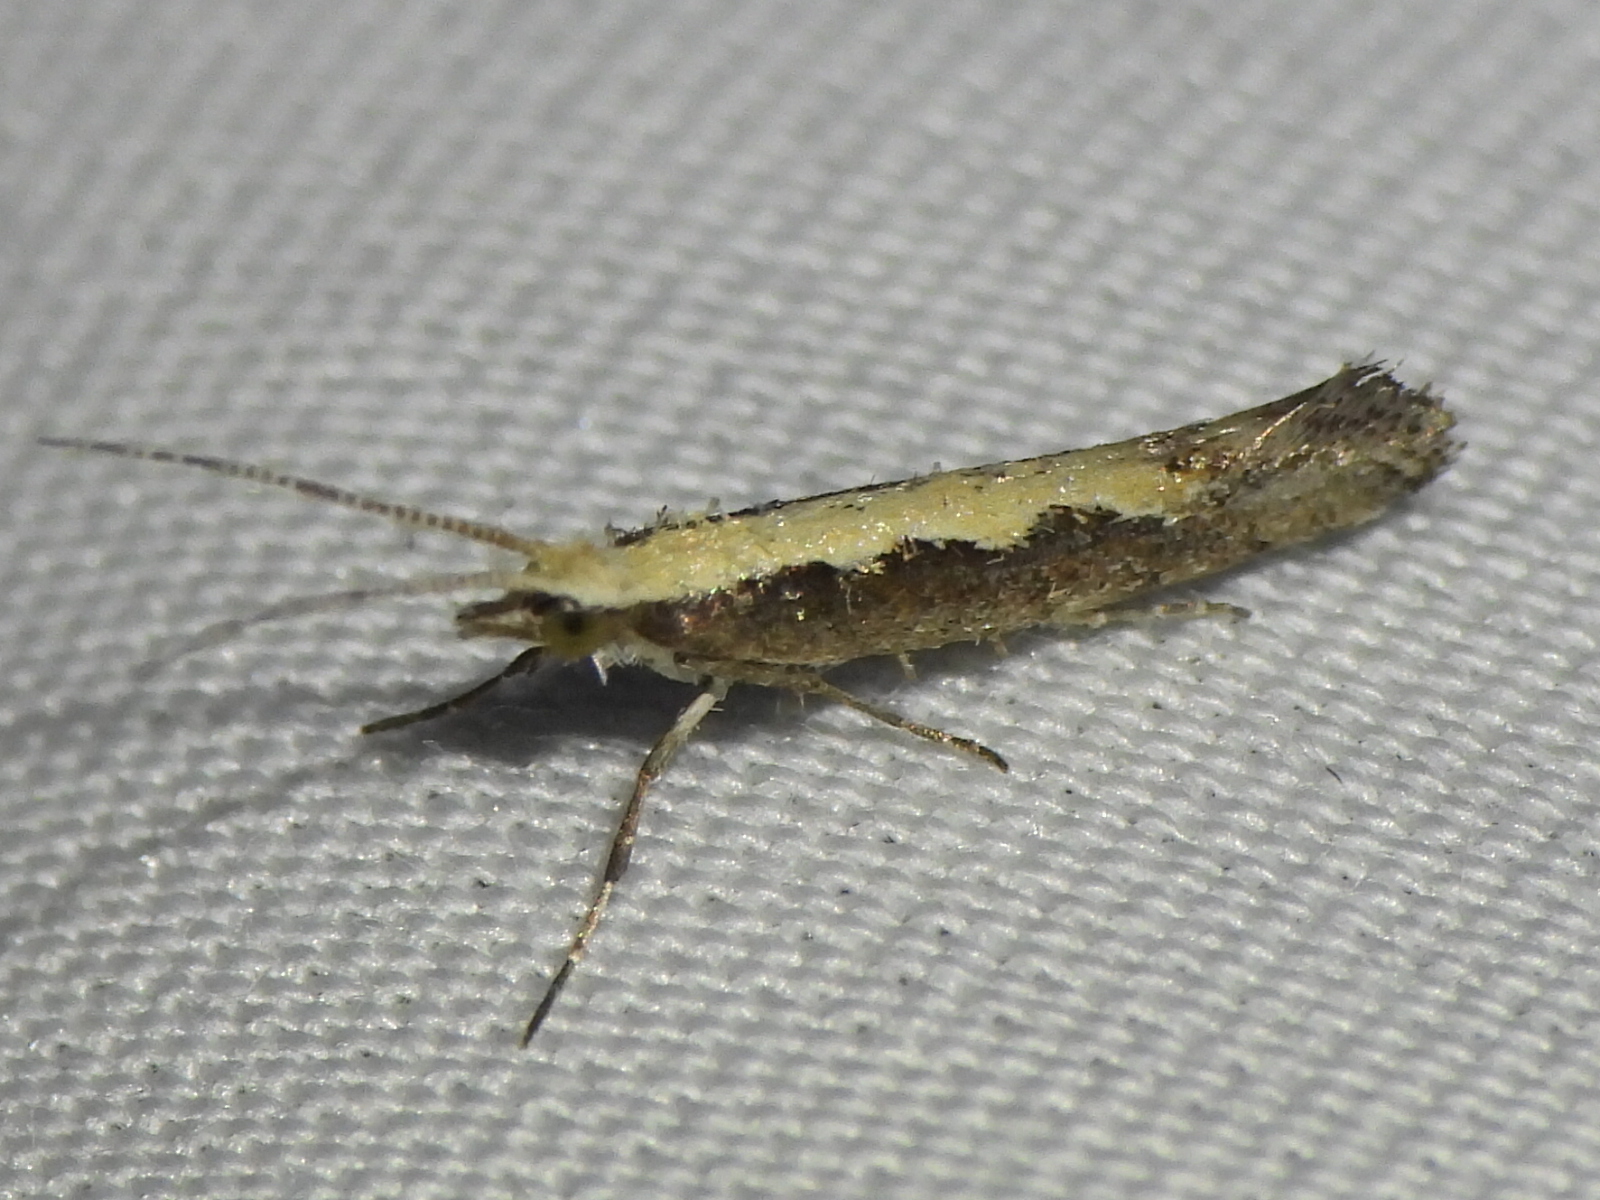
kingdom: Animalia
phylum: Arthropoda
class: Insecta
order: Lepidoptera
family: Plutellidae
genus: Plutella
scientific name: Plutella xylostella
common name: Diamond-back moth
